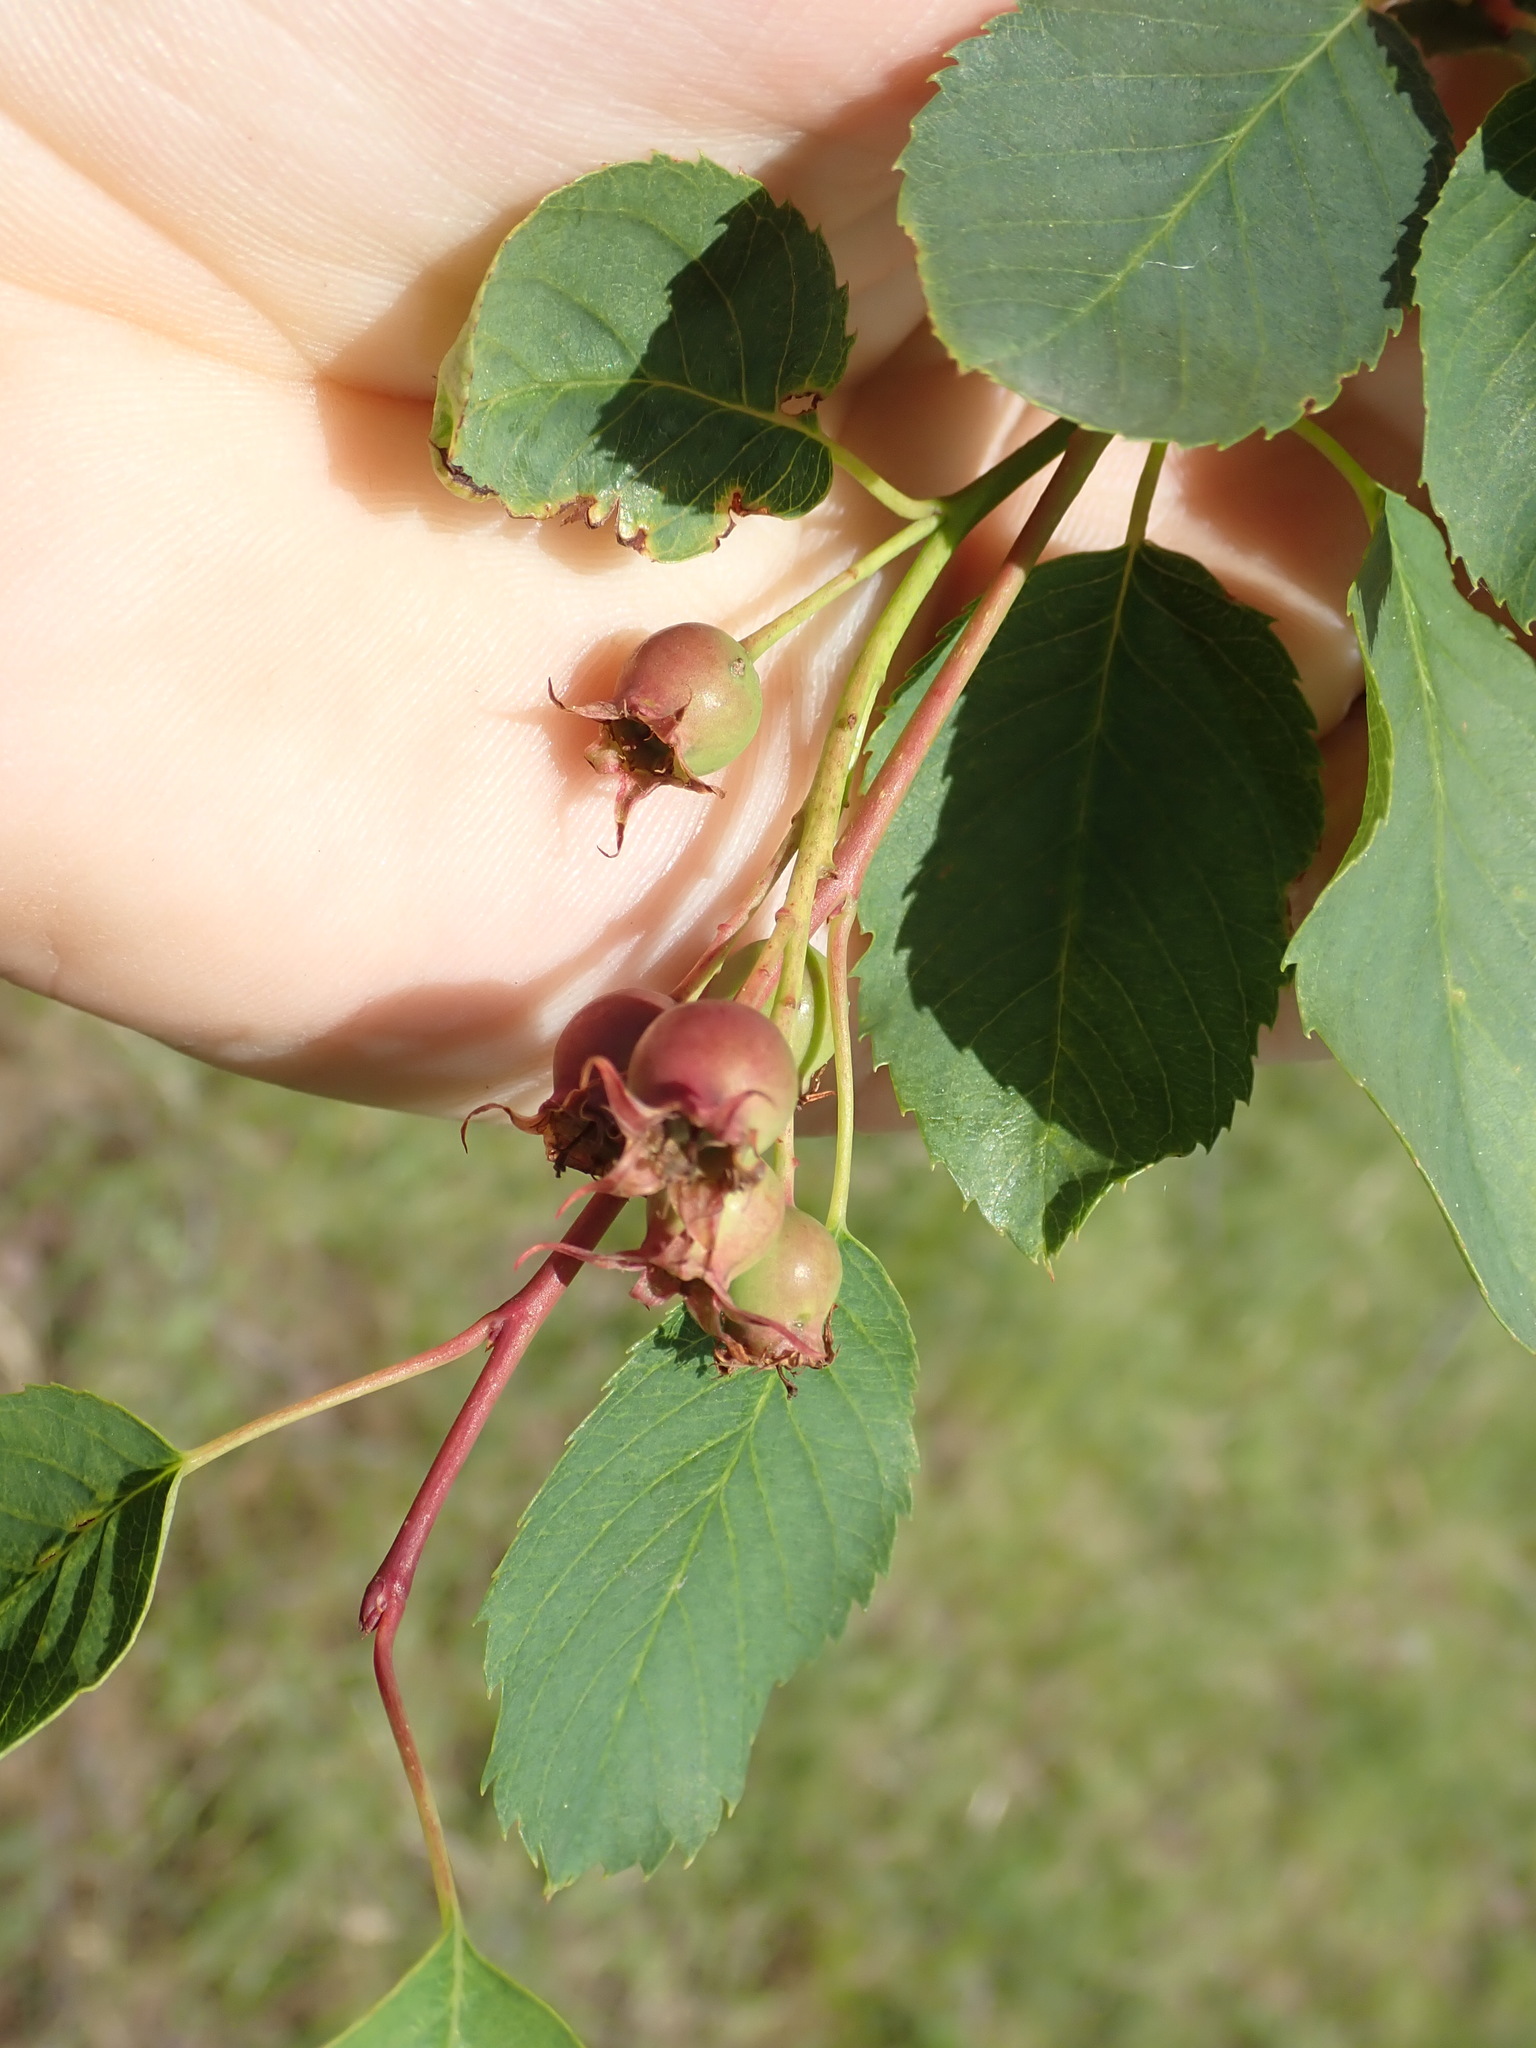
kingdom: Plantae
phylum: Tracheophyta
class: Magnoliopsida
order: Rosales
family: Rosaceae
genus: Amelanchier
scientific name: Amelanchier alnifolia
